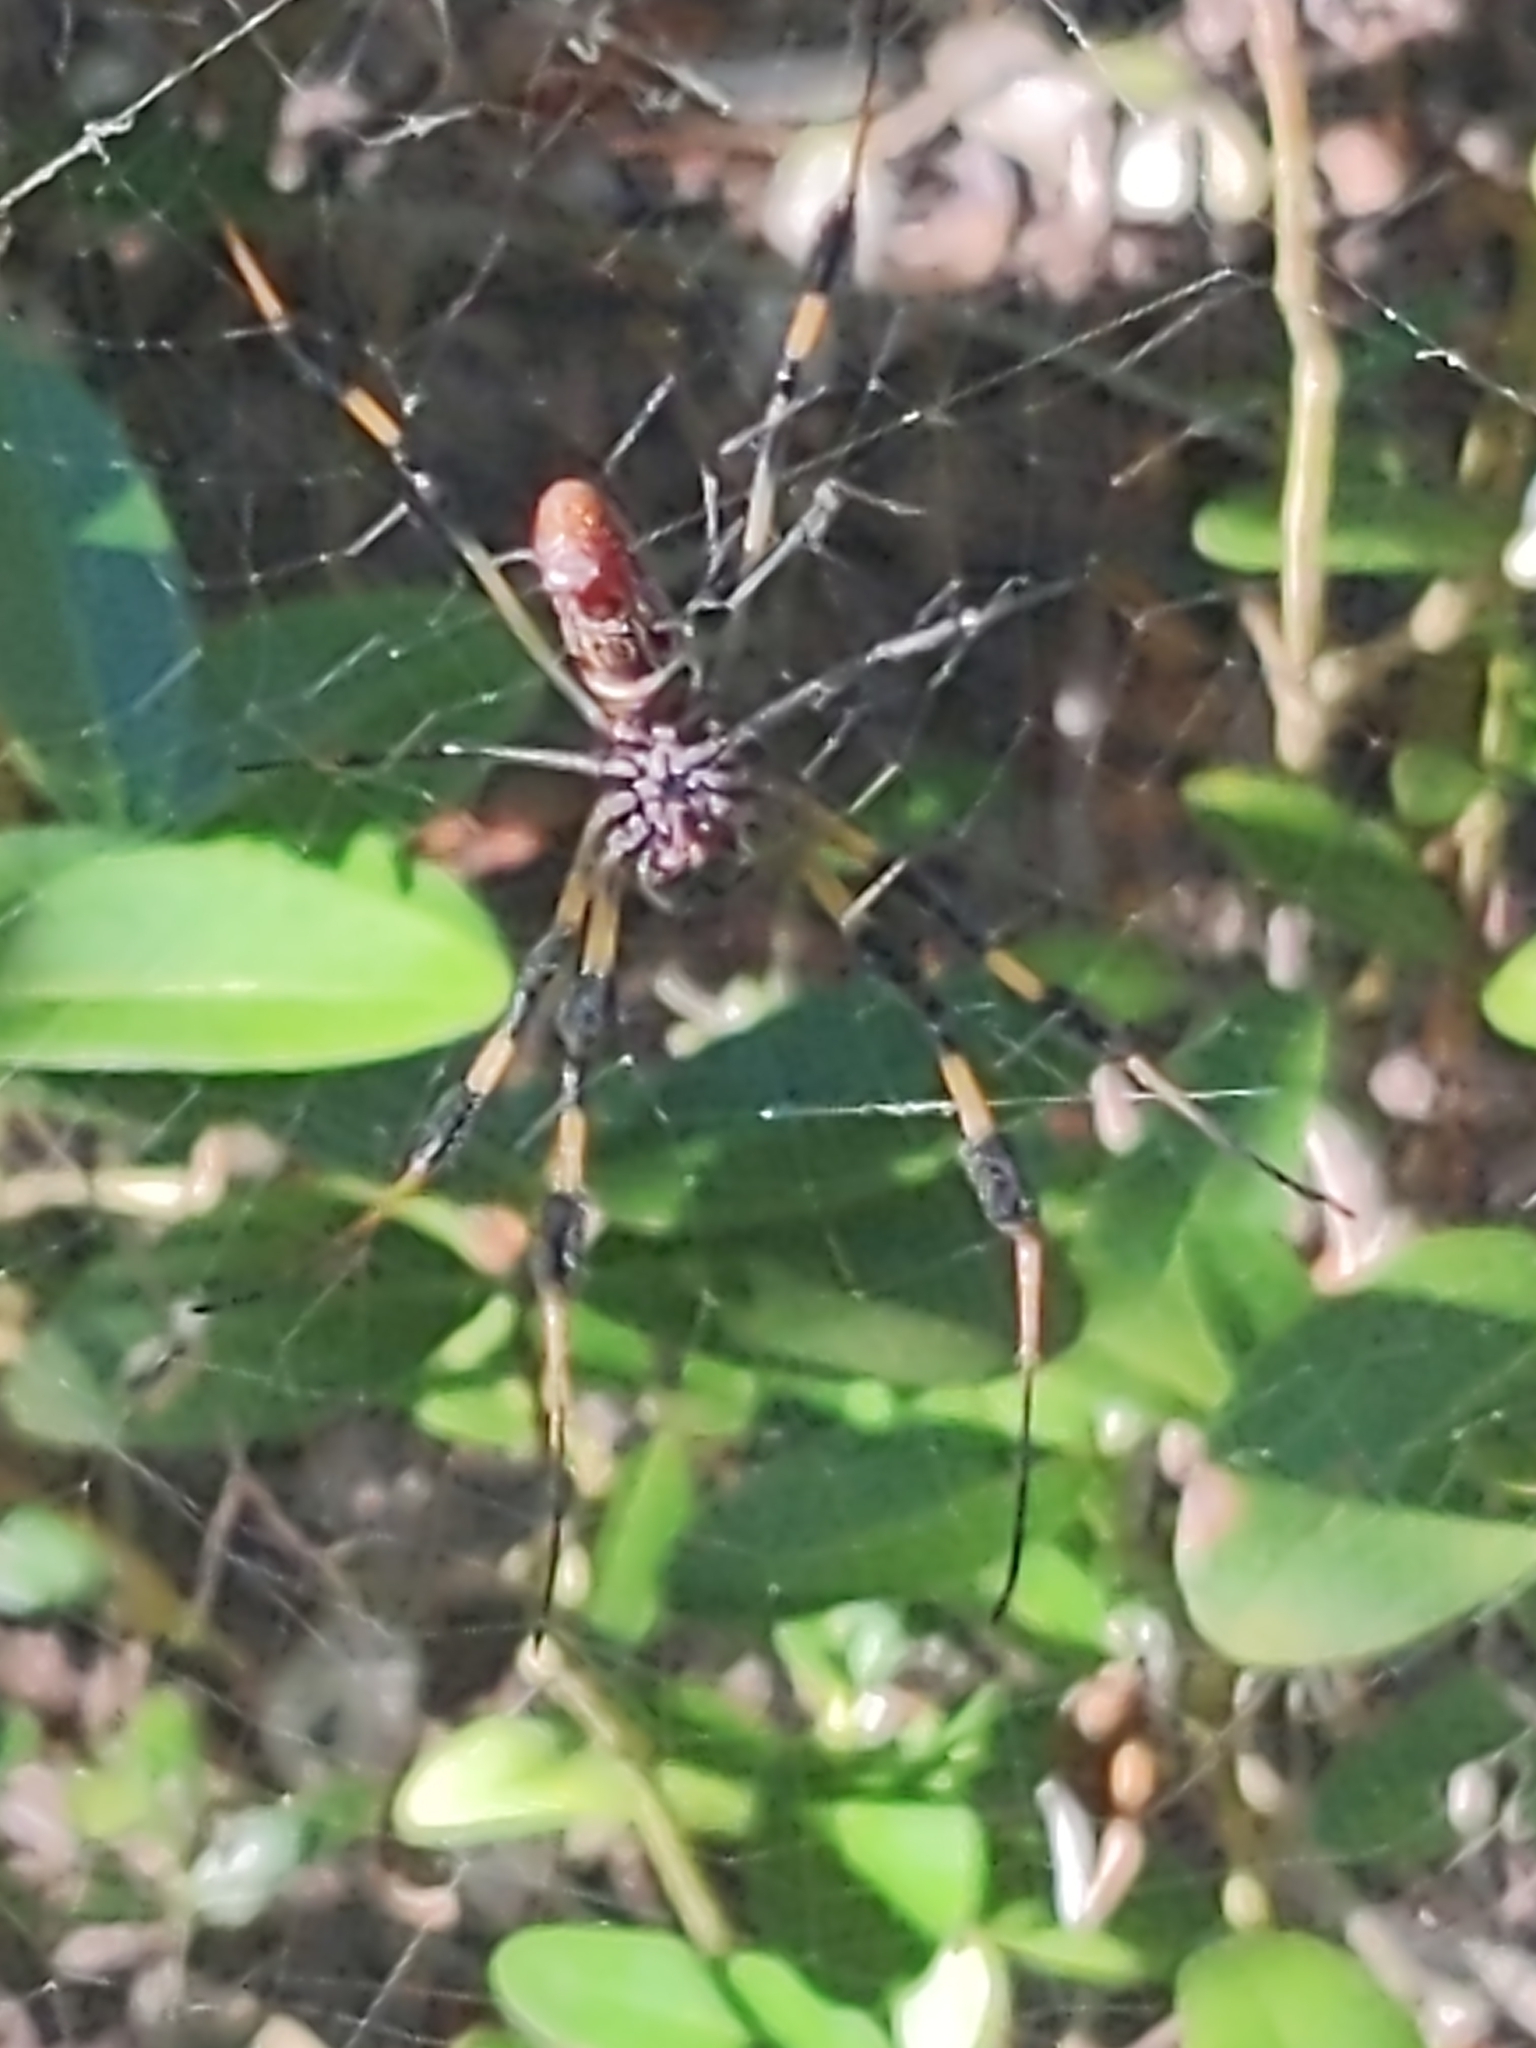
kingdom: Animalia
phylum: Arthropoda
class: Arachnida
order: Araneae
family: Araneidae
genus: Trichonephila
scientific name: Trichonephila clavipes
